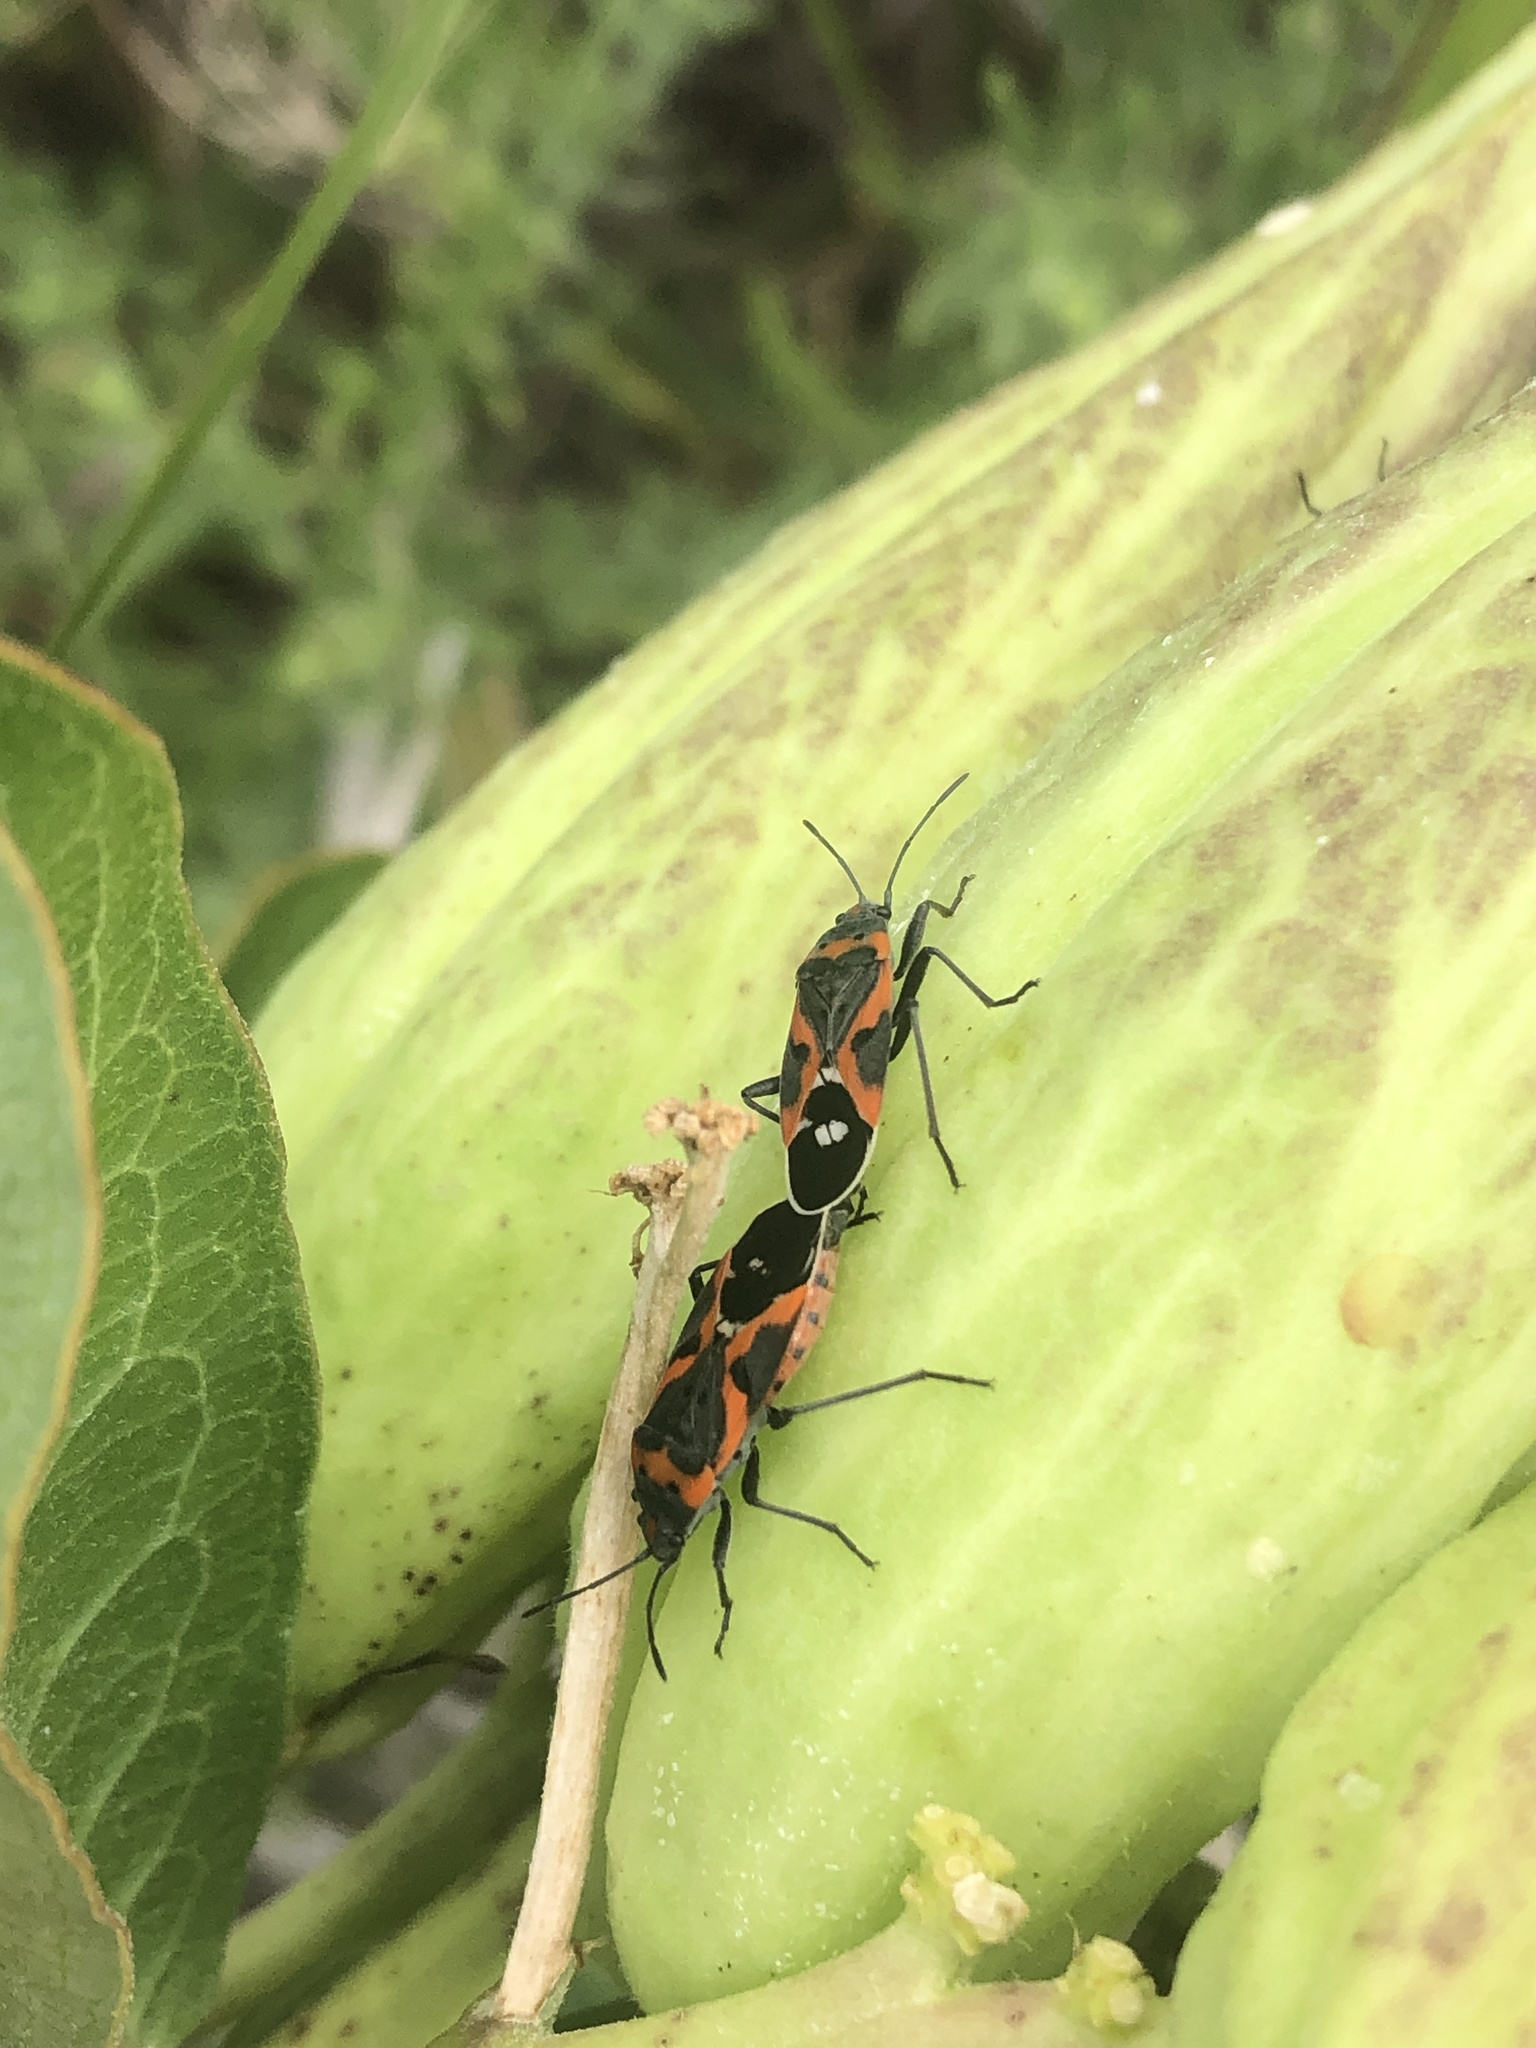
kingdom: Animalia
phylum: Arthropoda
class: Insecta
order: Hemiptera
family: Lygaeidae
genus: Lygaeus
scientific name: Lygaeus kalmii
